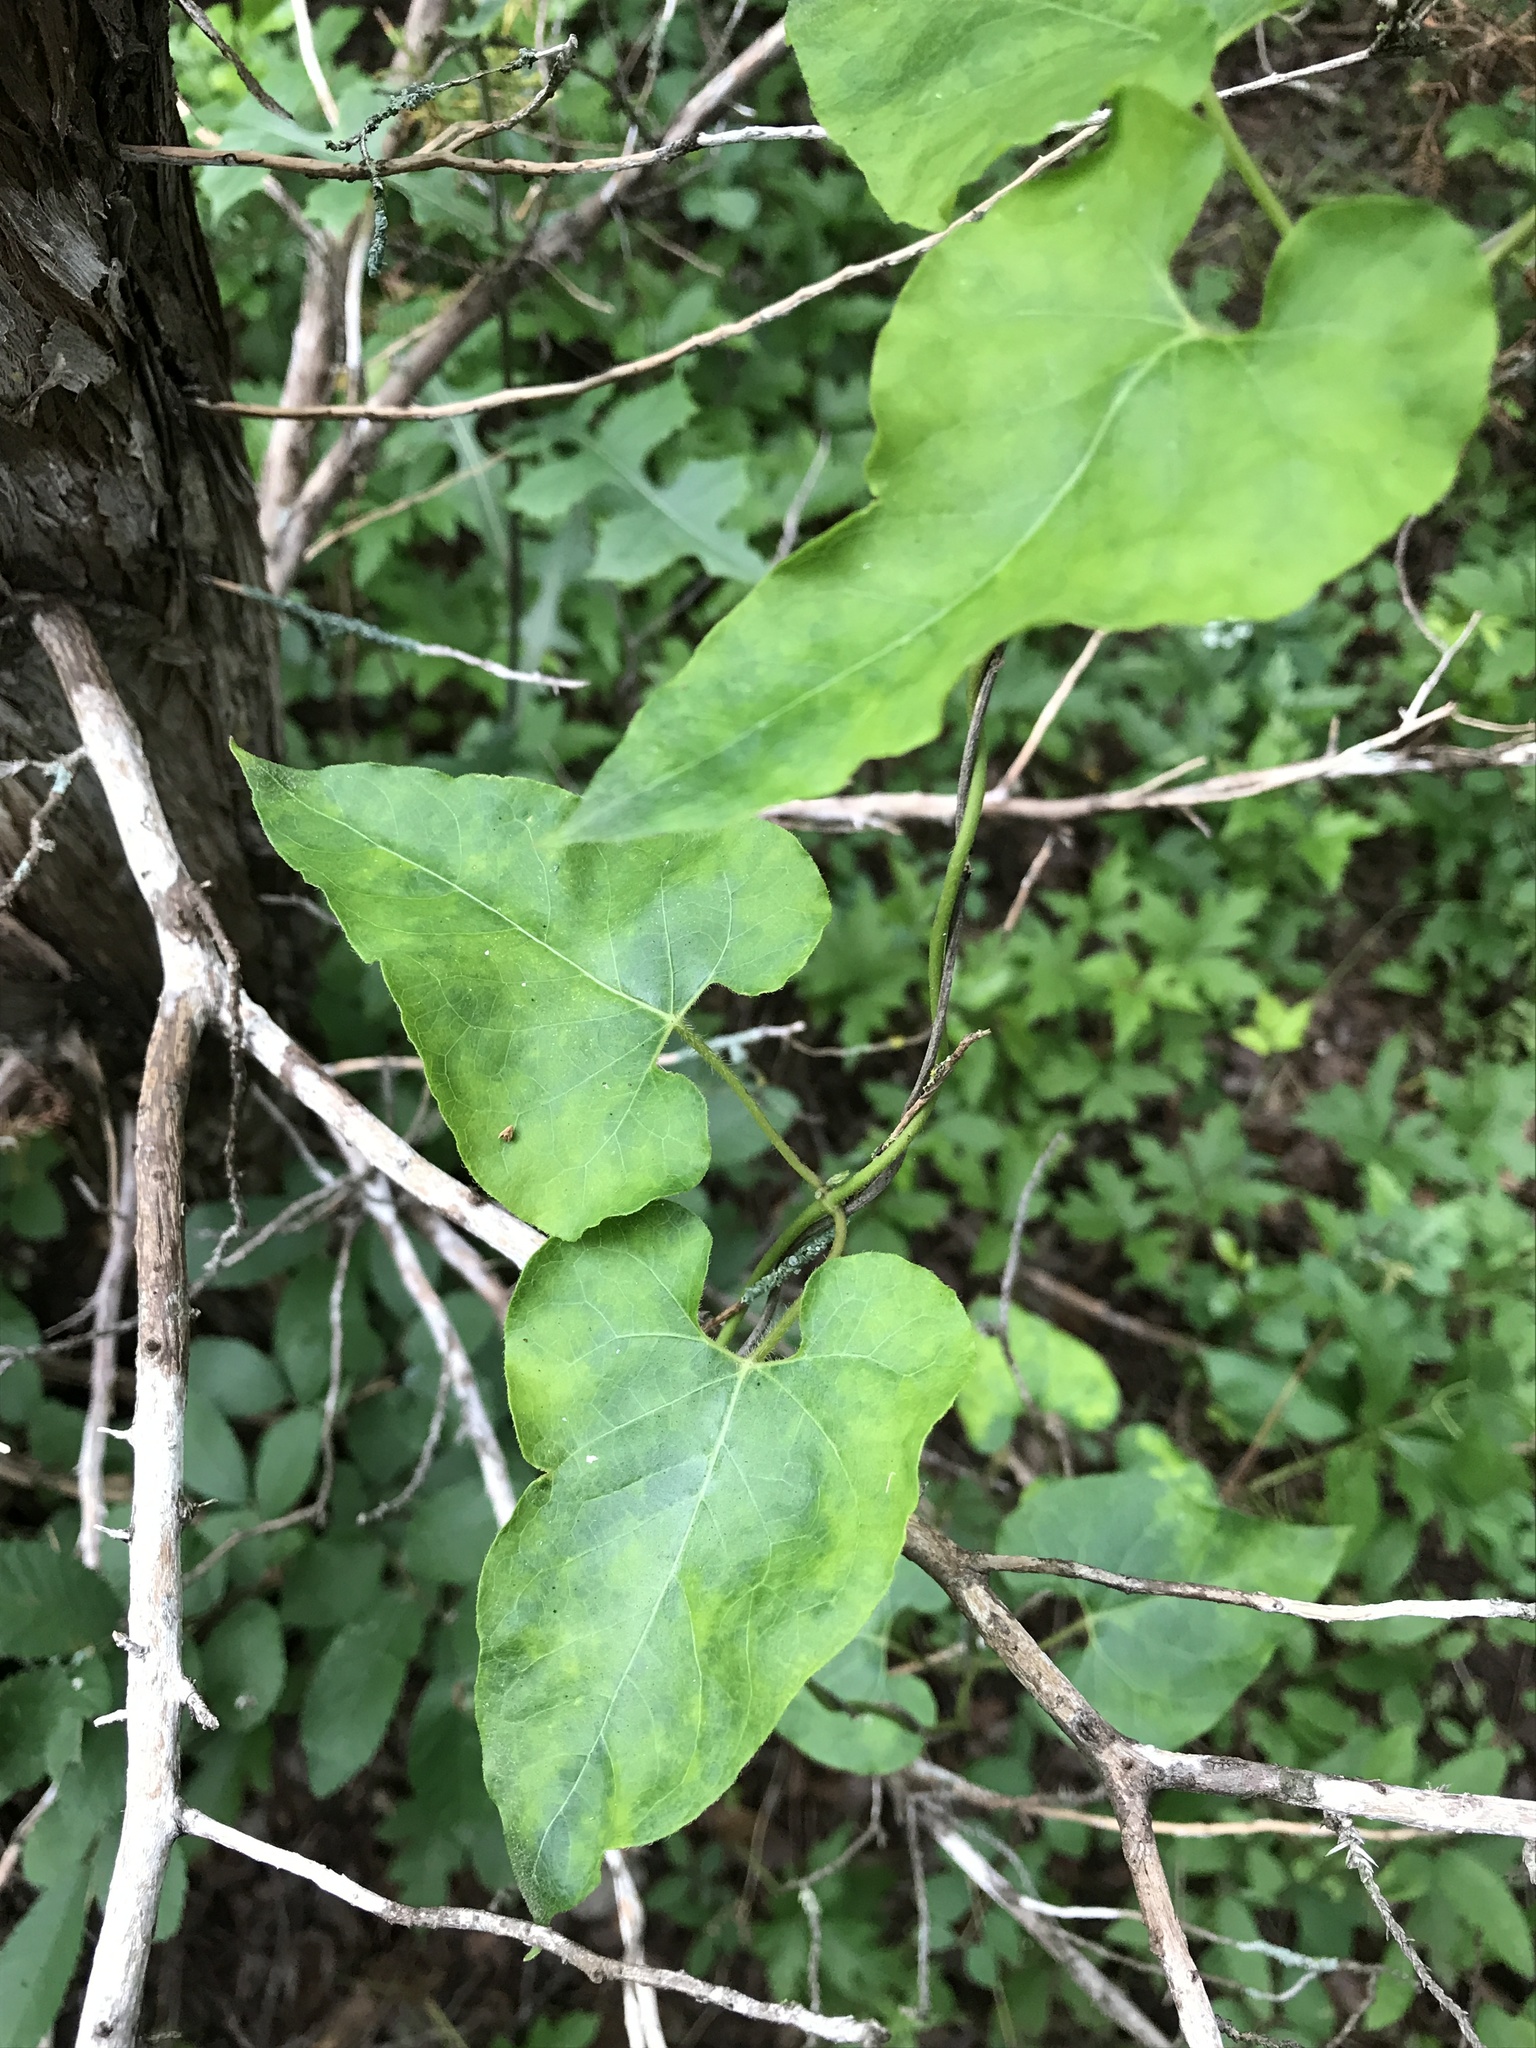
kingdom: Plantae
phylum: Tracheophyta
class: Magnoliopsida
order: Gentianales
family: Apocynaceae
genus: Matelea
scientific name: Matelea edwardsensis
